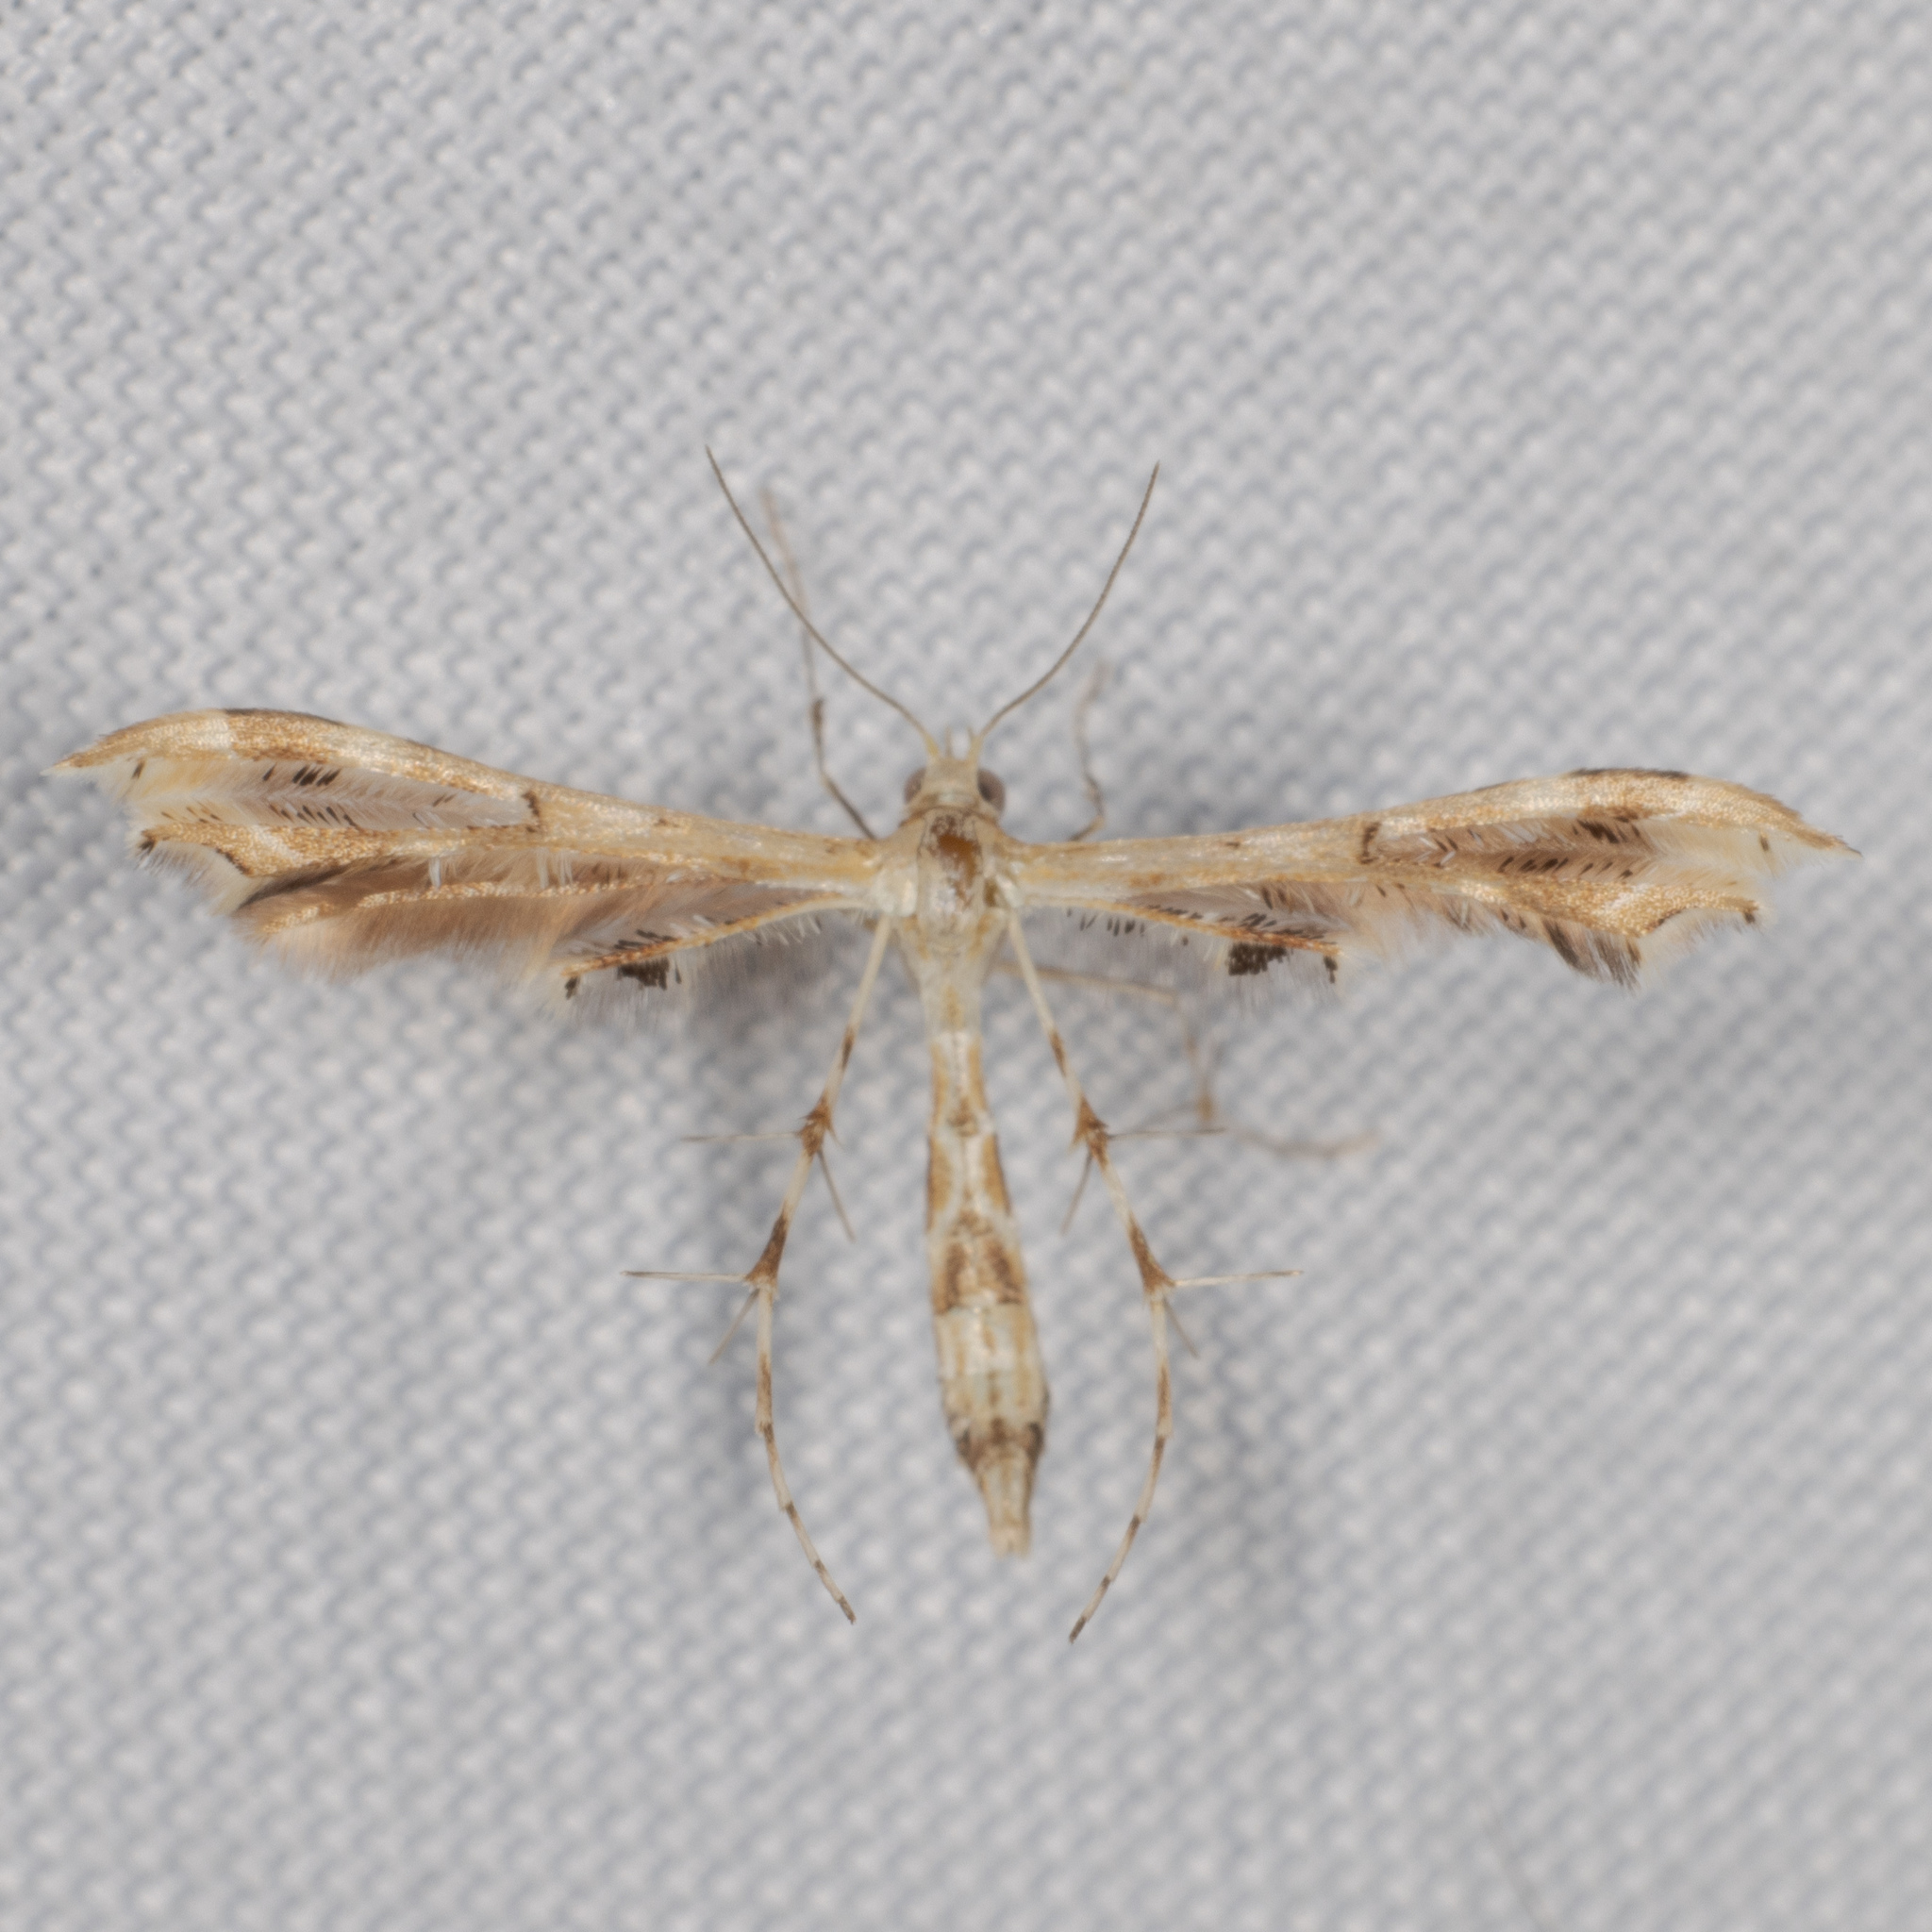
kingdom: Animalia
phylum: Arthropoda
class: Insecta
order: Lepidoptera
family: Pterophoridae
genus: Sphenarches
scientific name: Sphenarches anisodactylus
